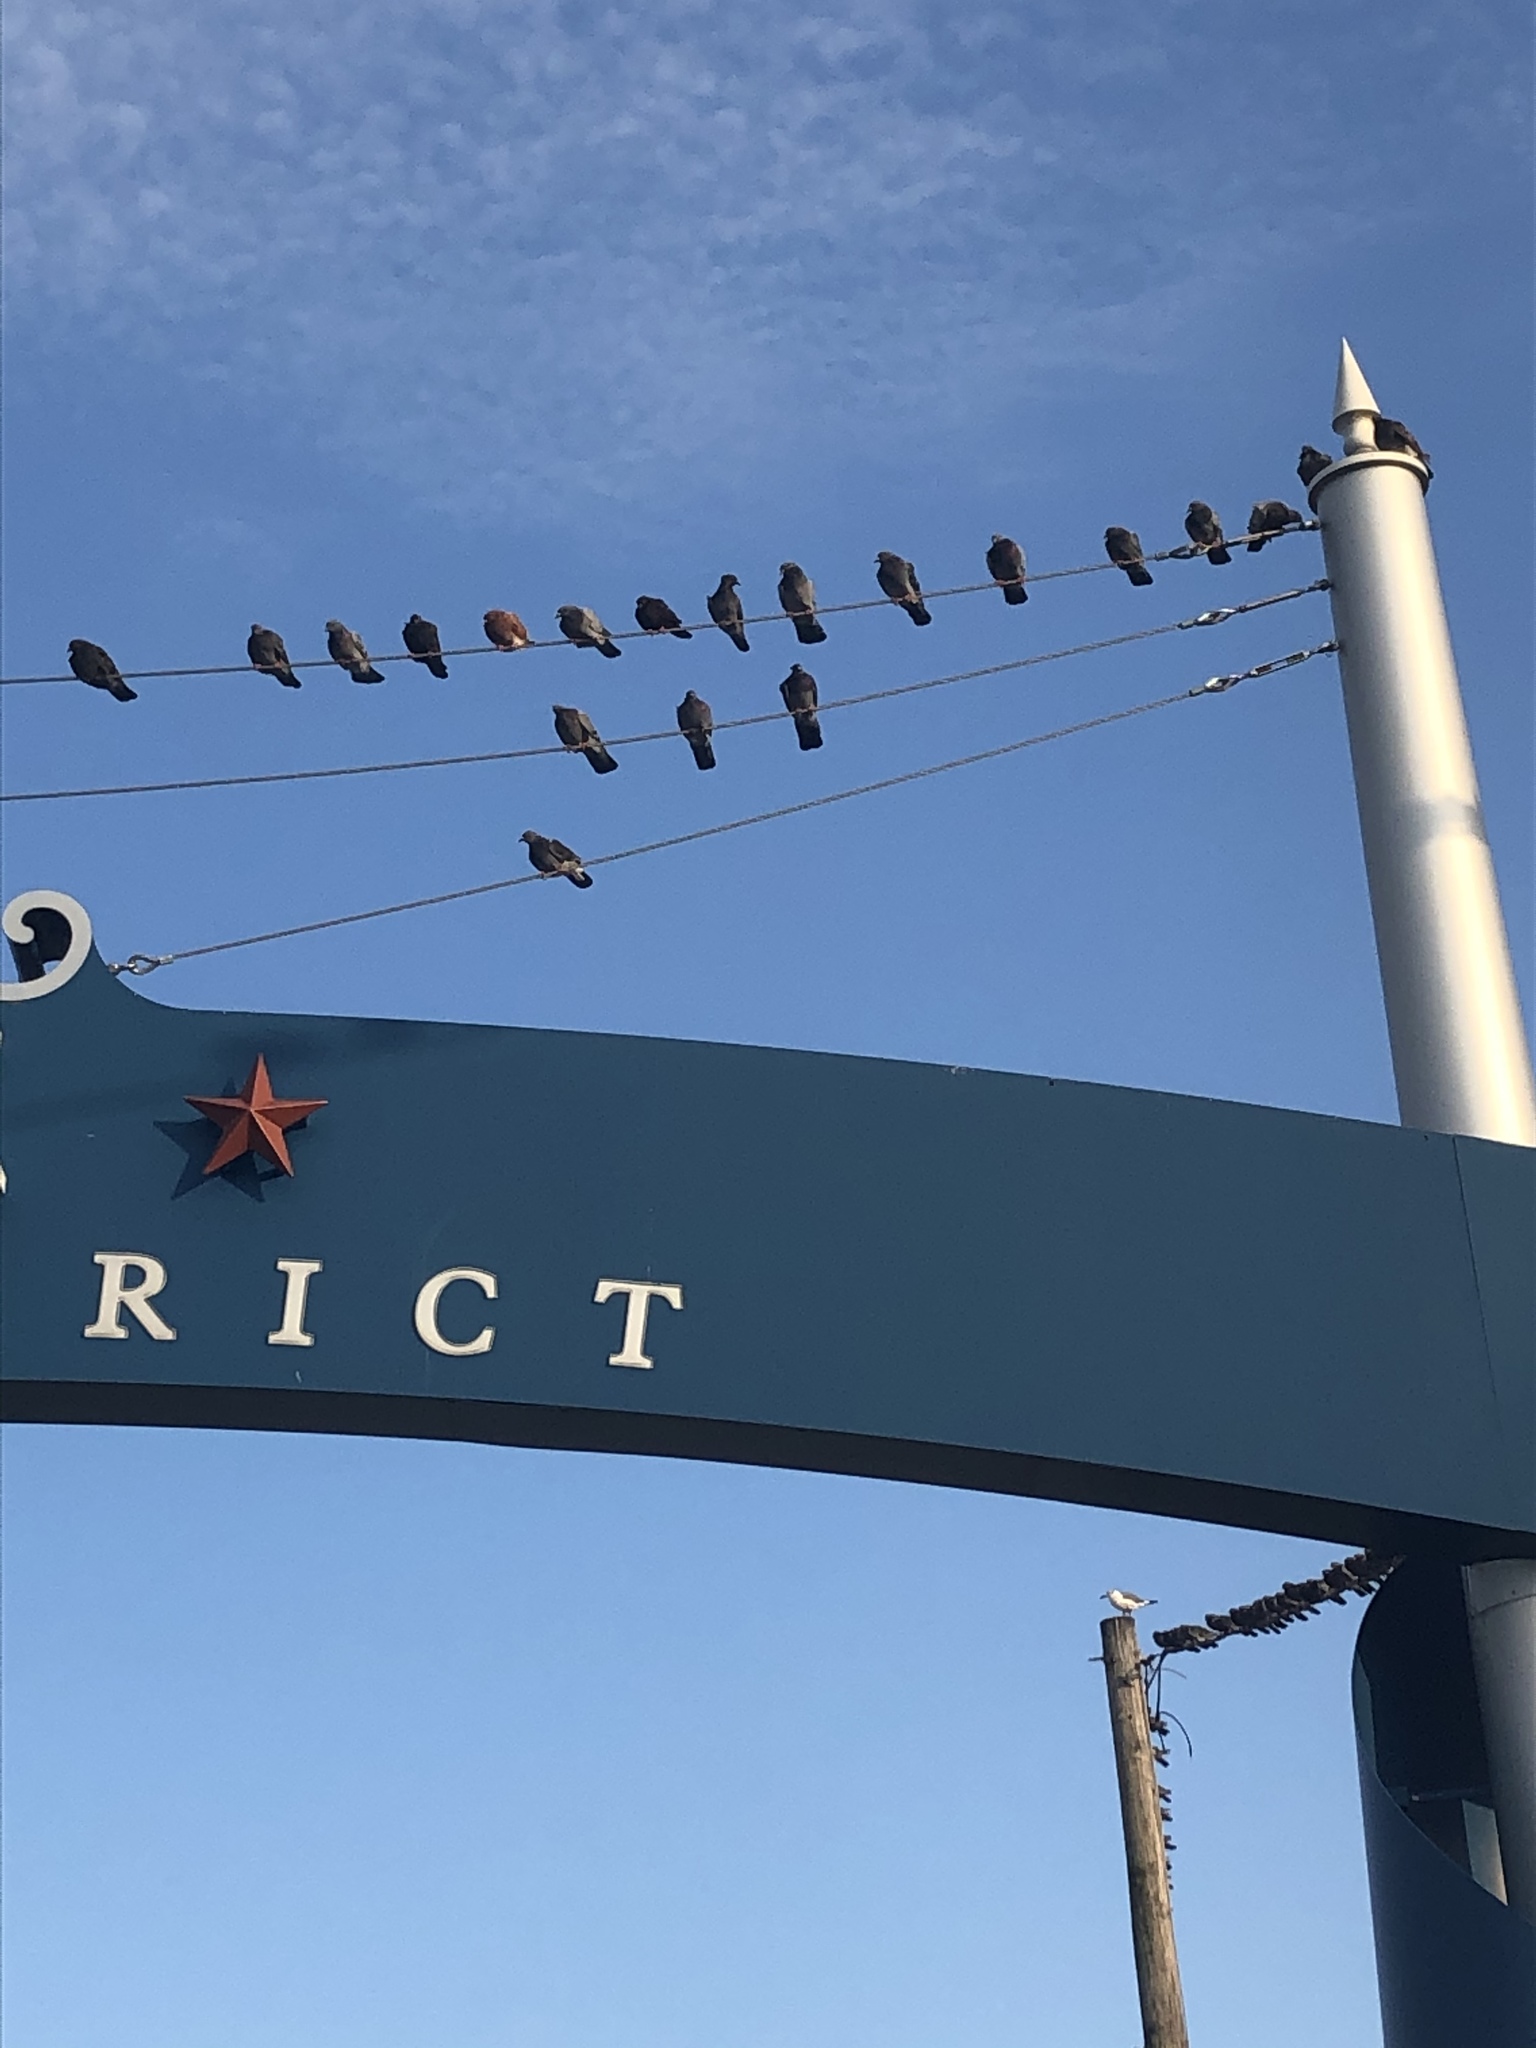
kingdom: Animalia
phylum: Chordata
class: Aves
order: Columbiformes
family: Columbidae
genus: Columba
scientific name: Columba livia
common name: Rock pigeon
